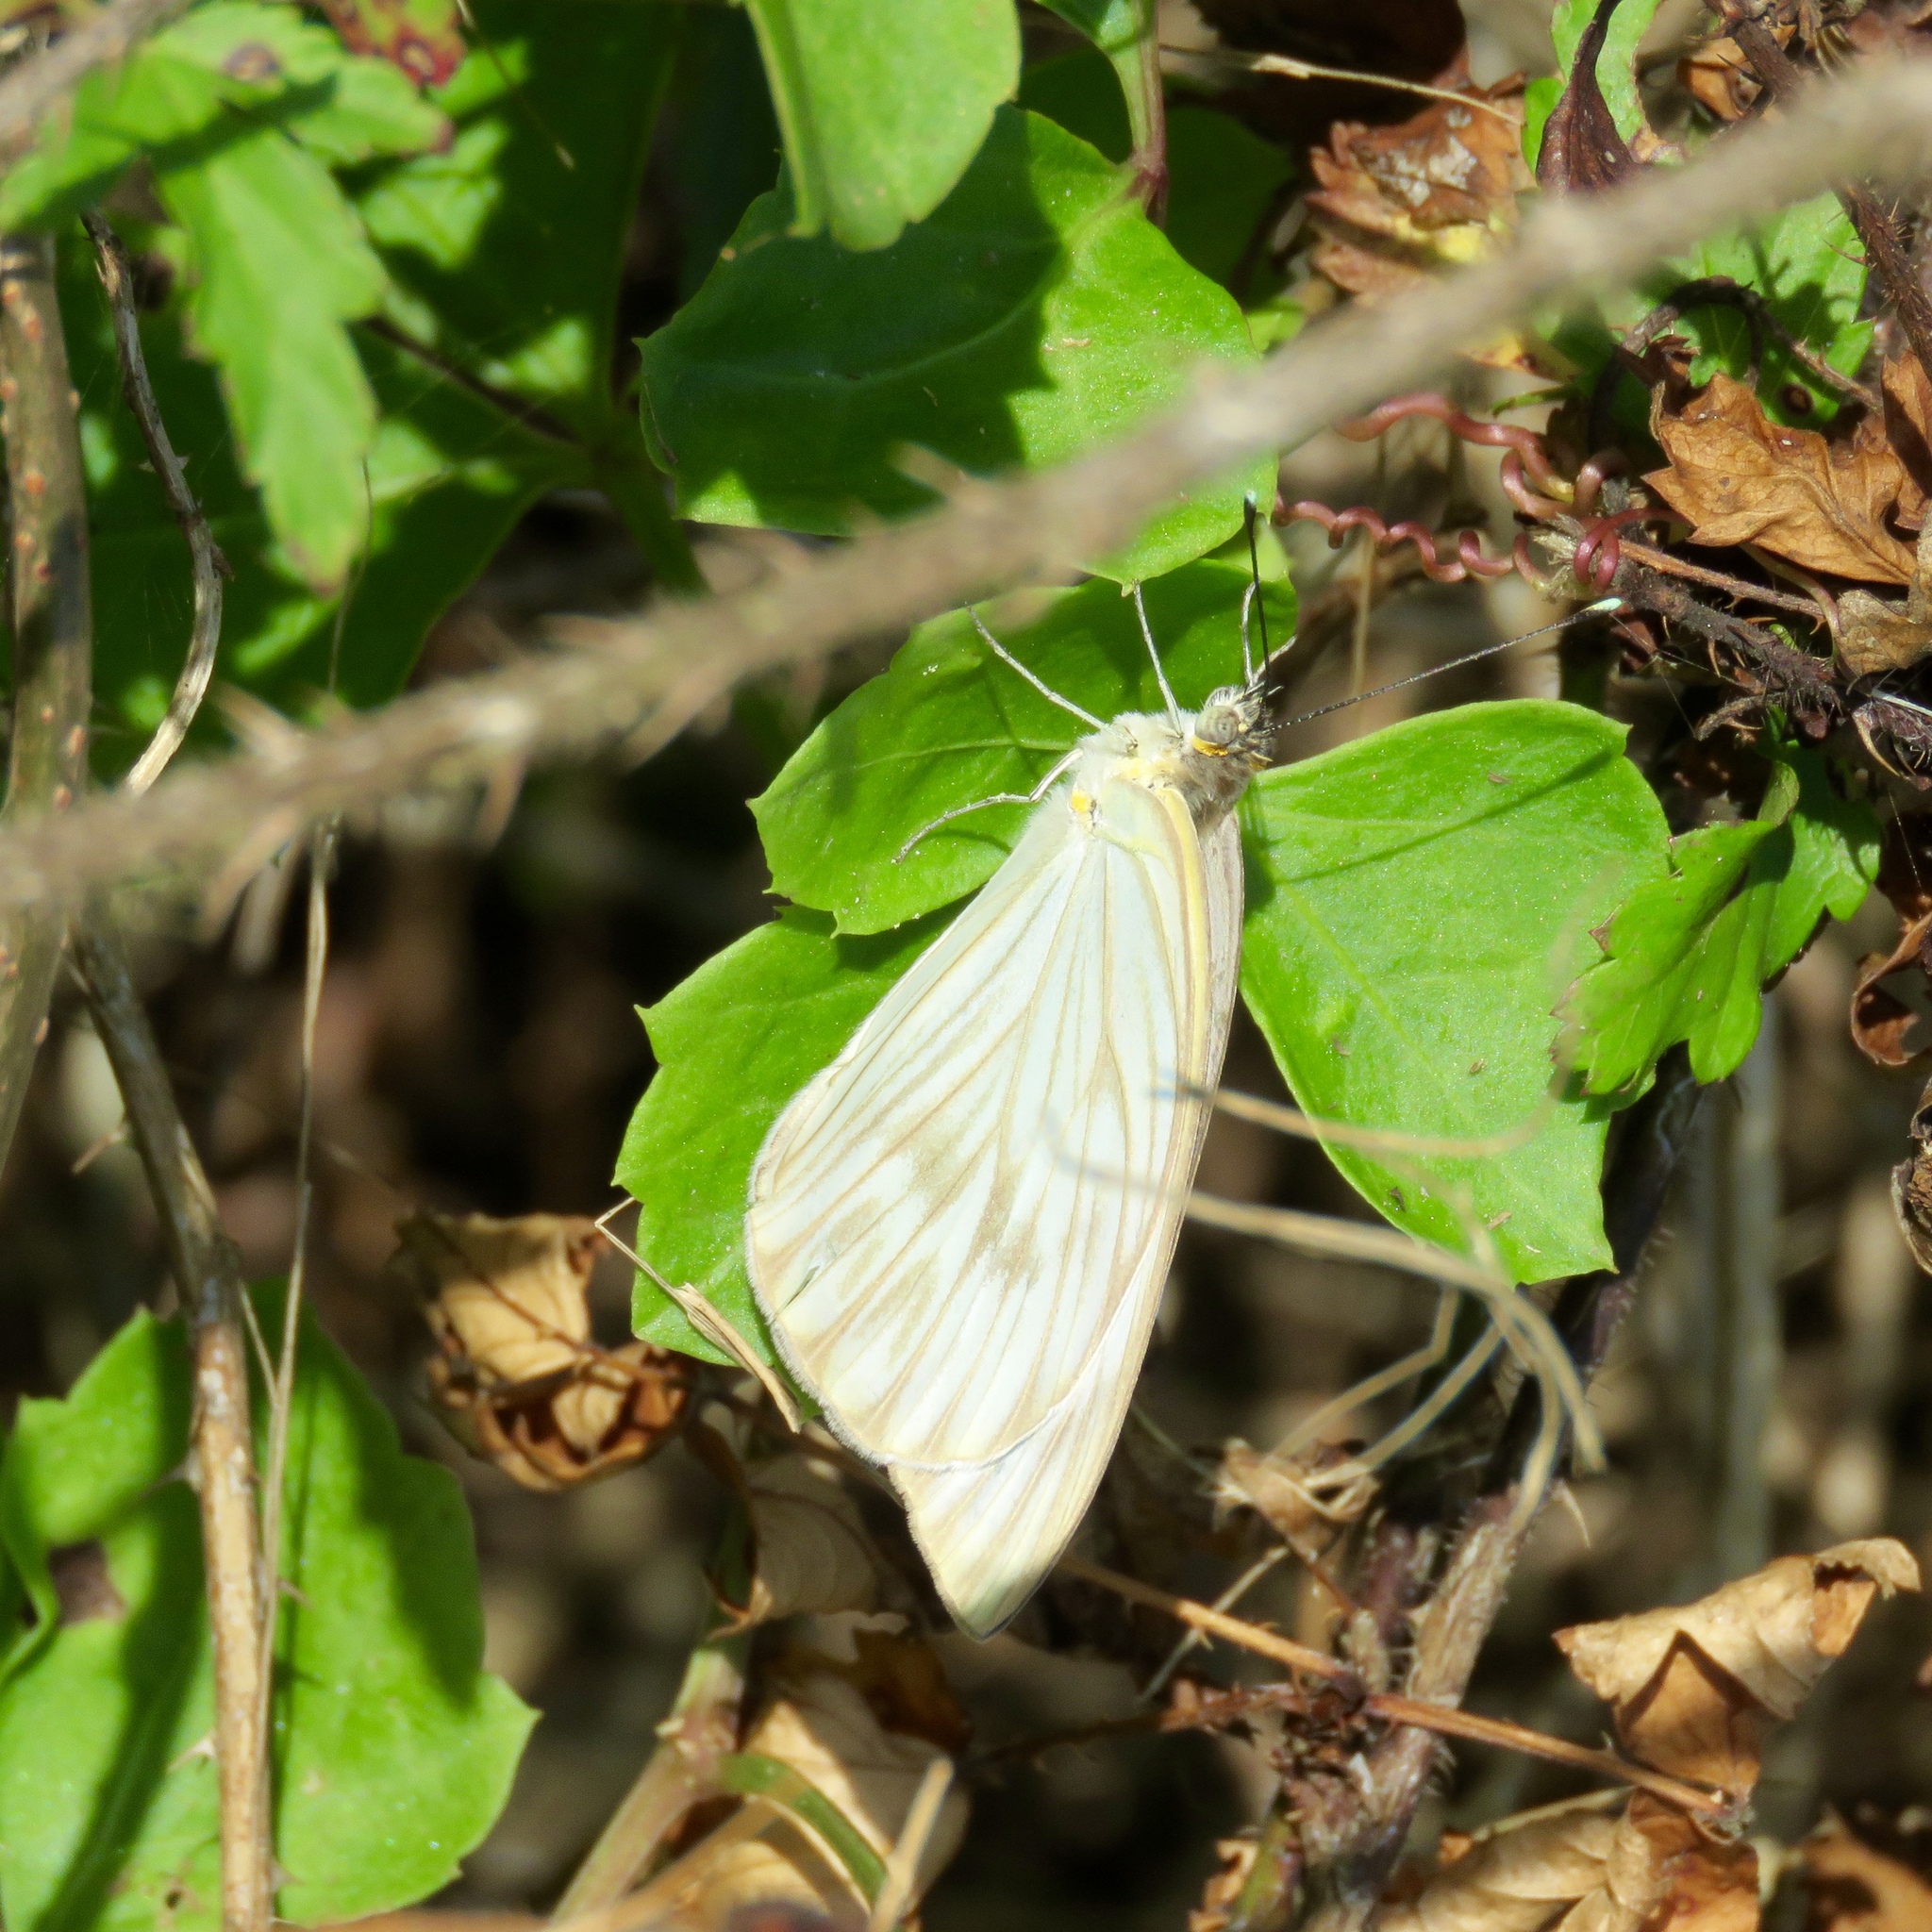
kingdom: Animalia
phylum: Arthropoda
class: Insecta
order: Lepidoptera
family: Pieridae
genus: Ascia
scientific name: Ascia monuste
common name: Great southern white
